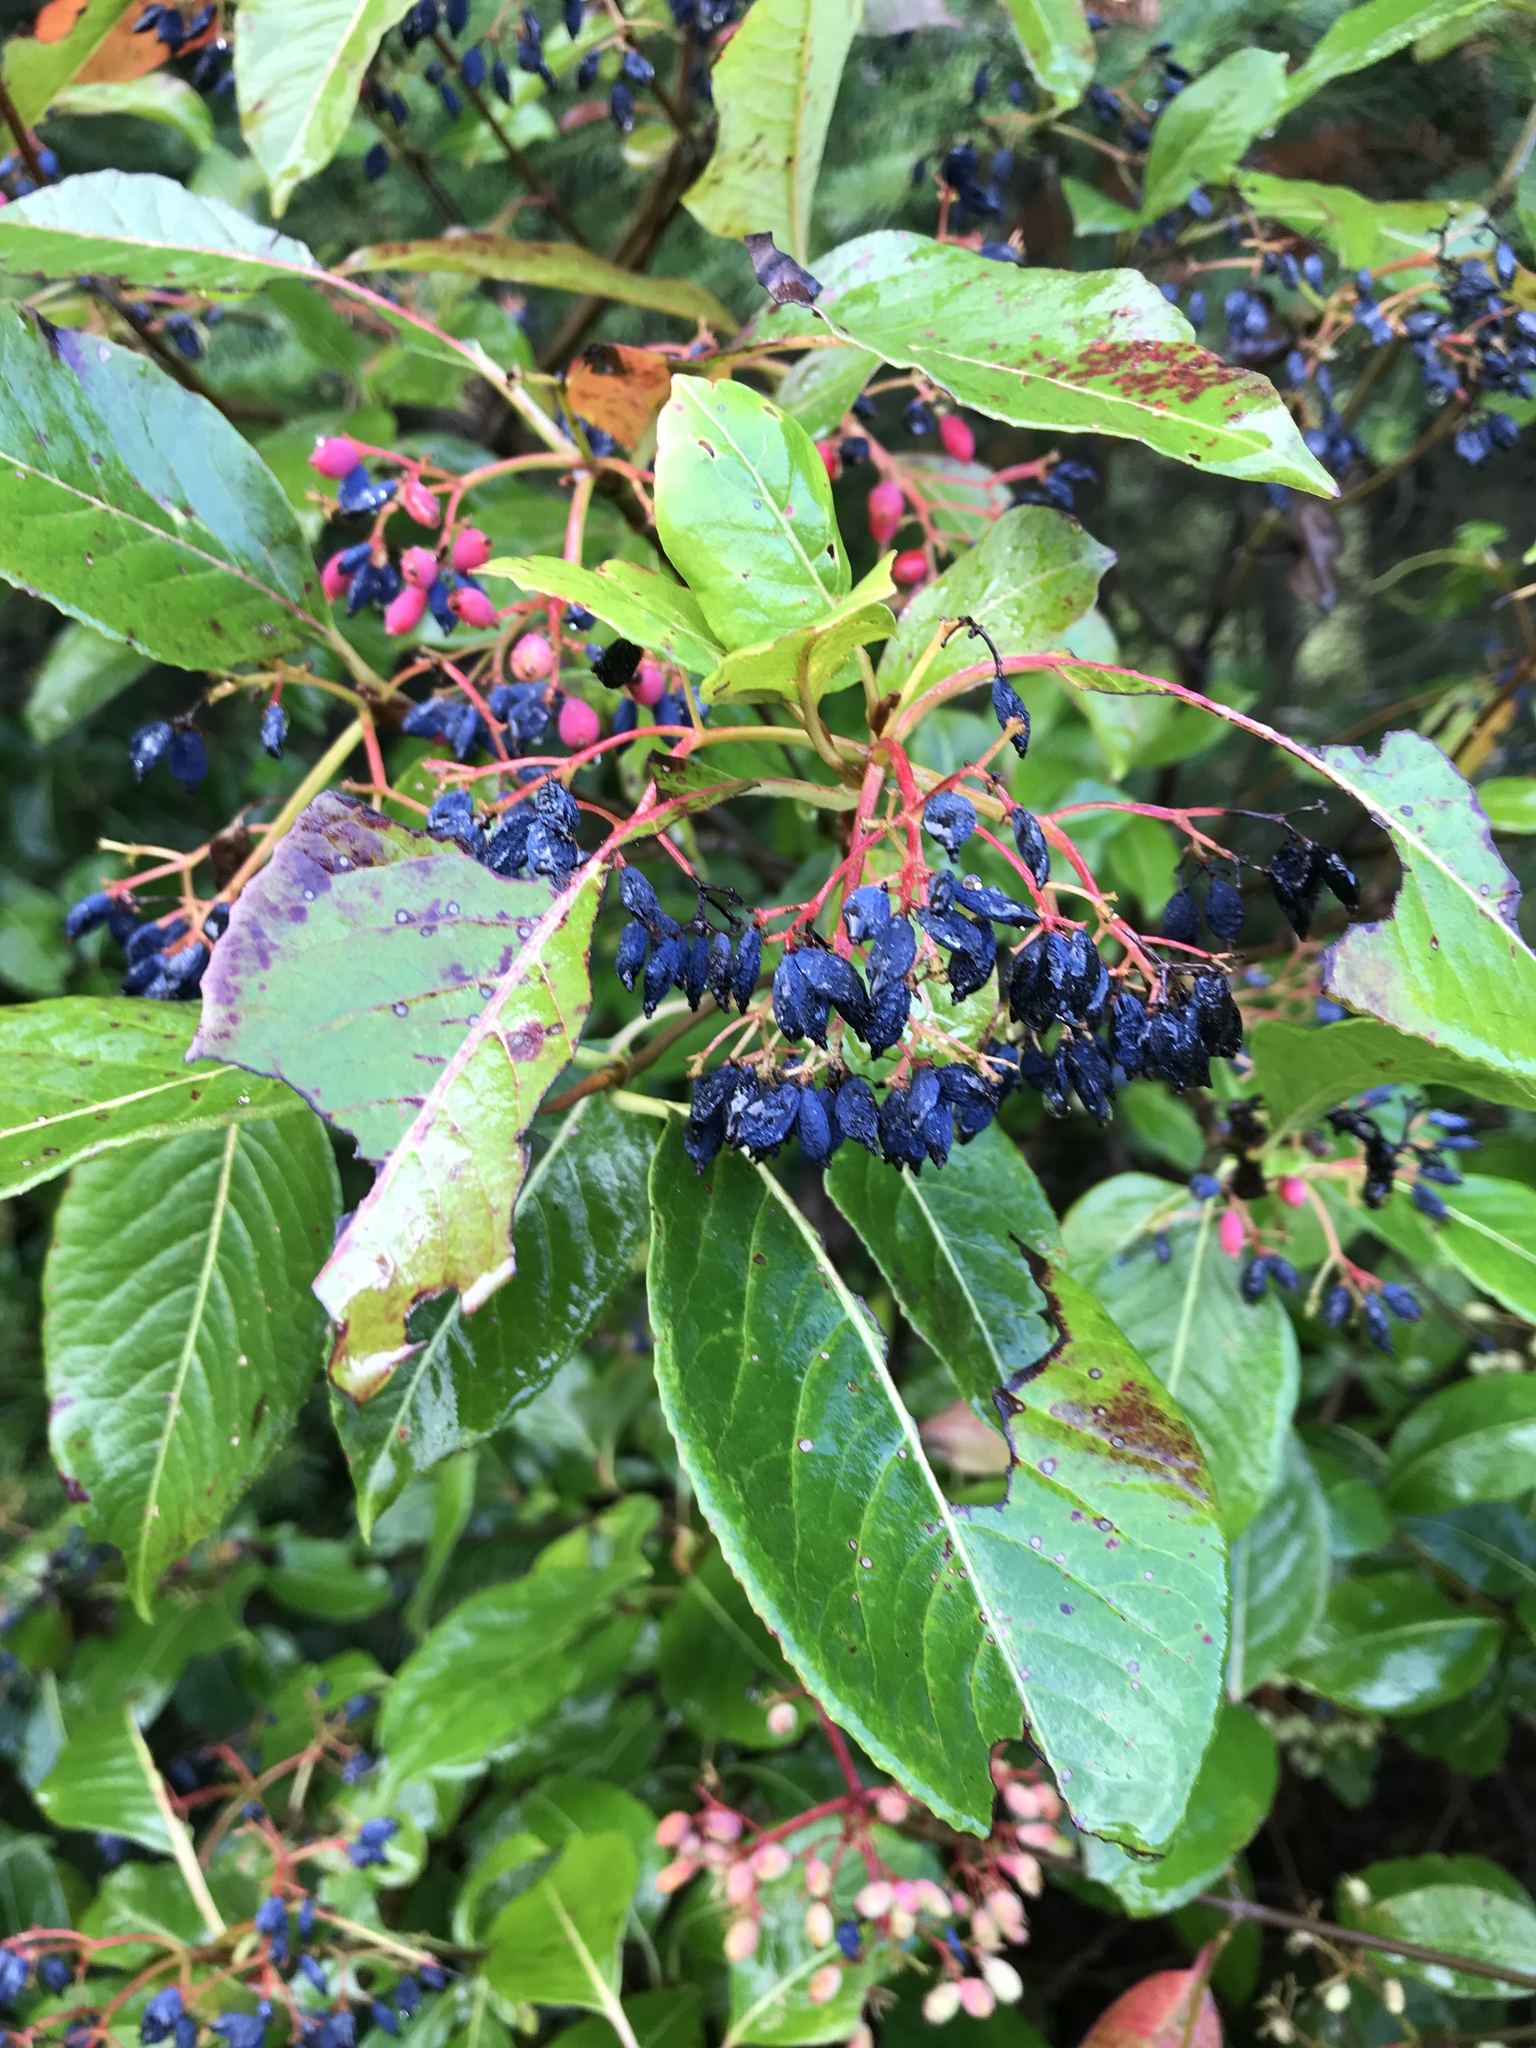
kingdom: Plantae
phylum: Tracheophyta
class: Magnoliopsida
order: Dipsacales
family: Viburnaceae
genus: Viburnum
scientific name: Viburnum cassinoides
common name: Swamp haw
